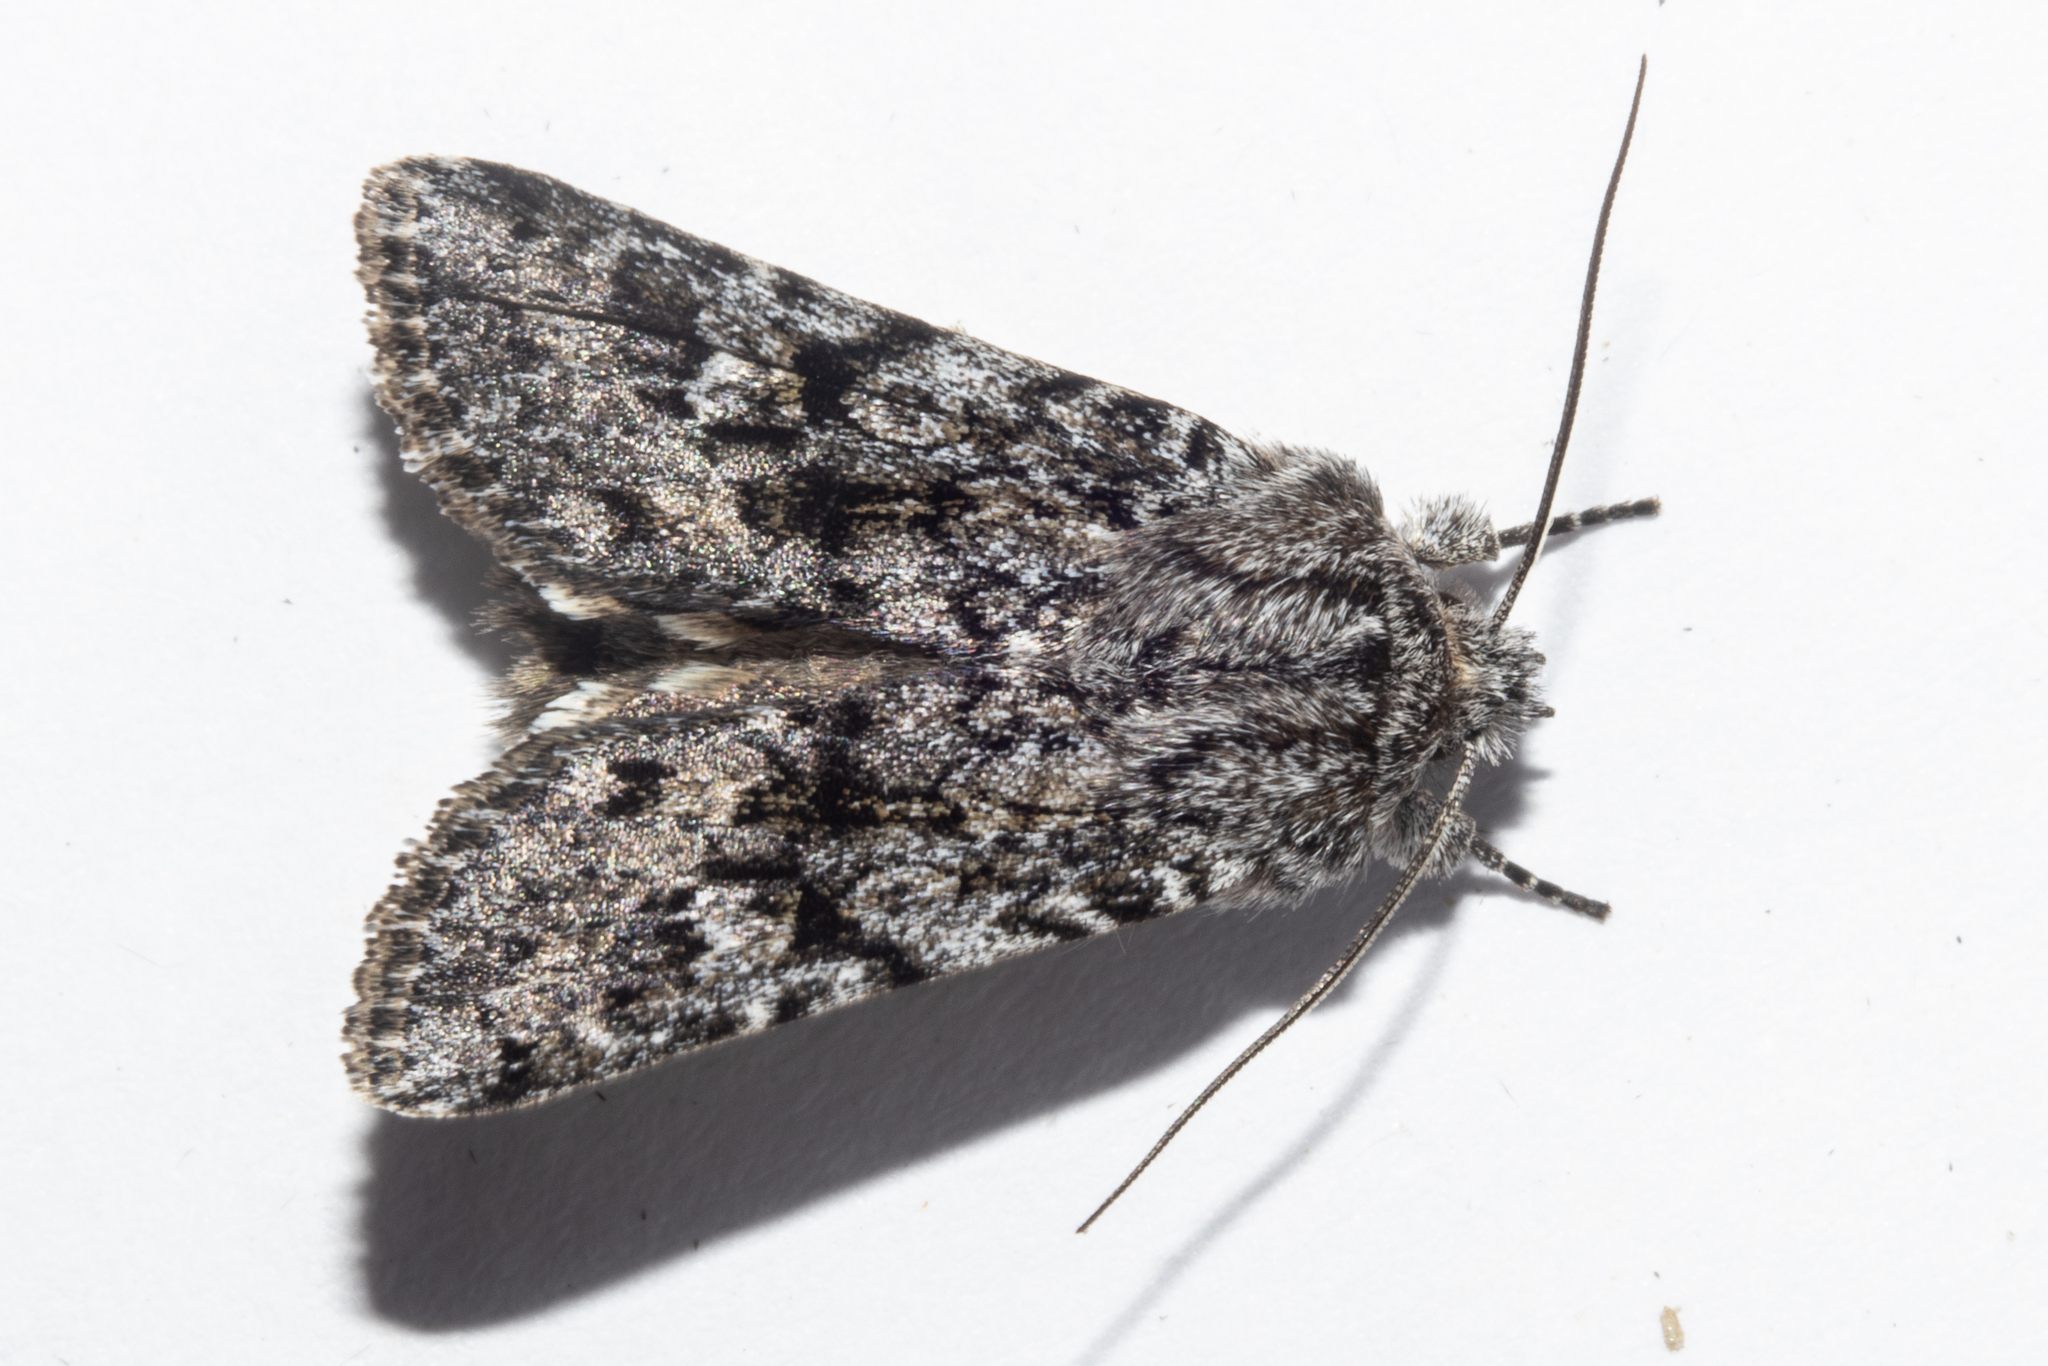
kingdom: Animalia
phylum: Arthropoda
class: Insecta
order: Lepidoptera
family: Noctuidae
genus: Physetica
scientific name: Physetica cucullina
